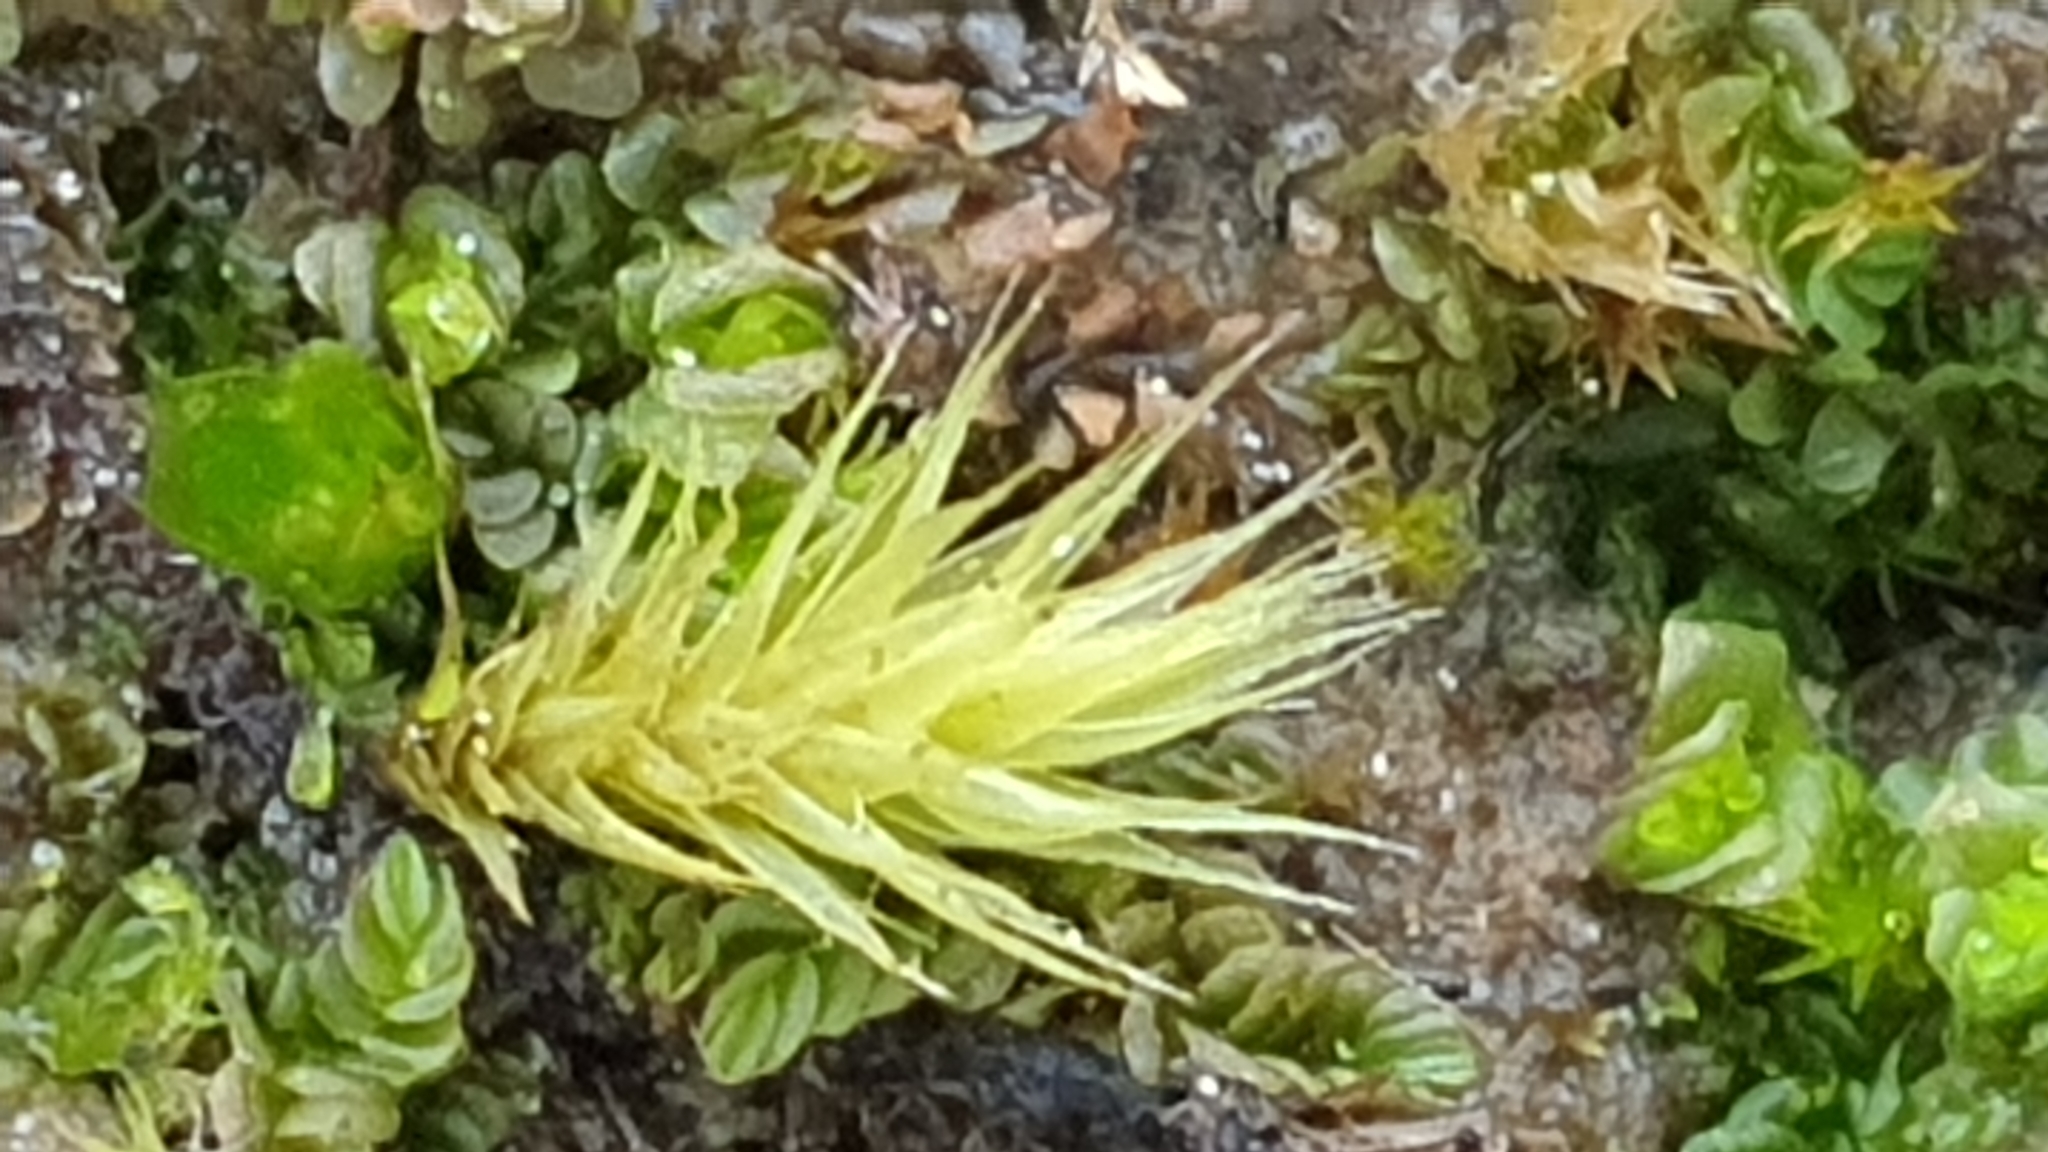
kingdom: Plantae
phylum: Bryophyta
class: Bryopsida
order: Bartramiales
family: Bartramiaceae
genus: Breutelia
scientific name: Breutelia affinis
